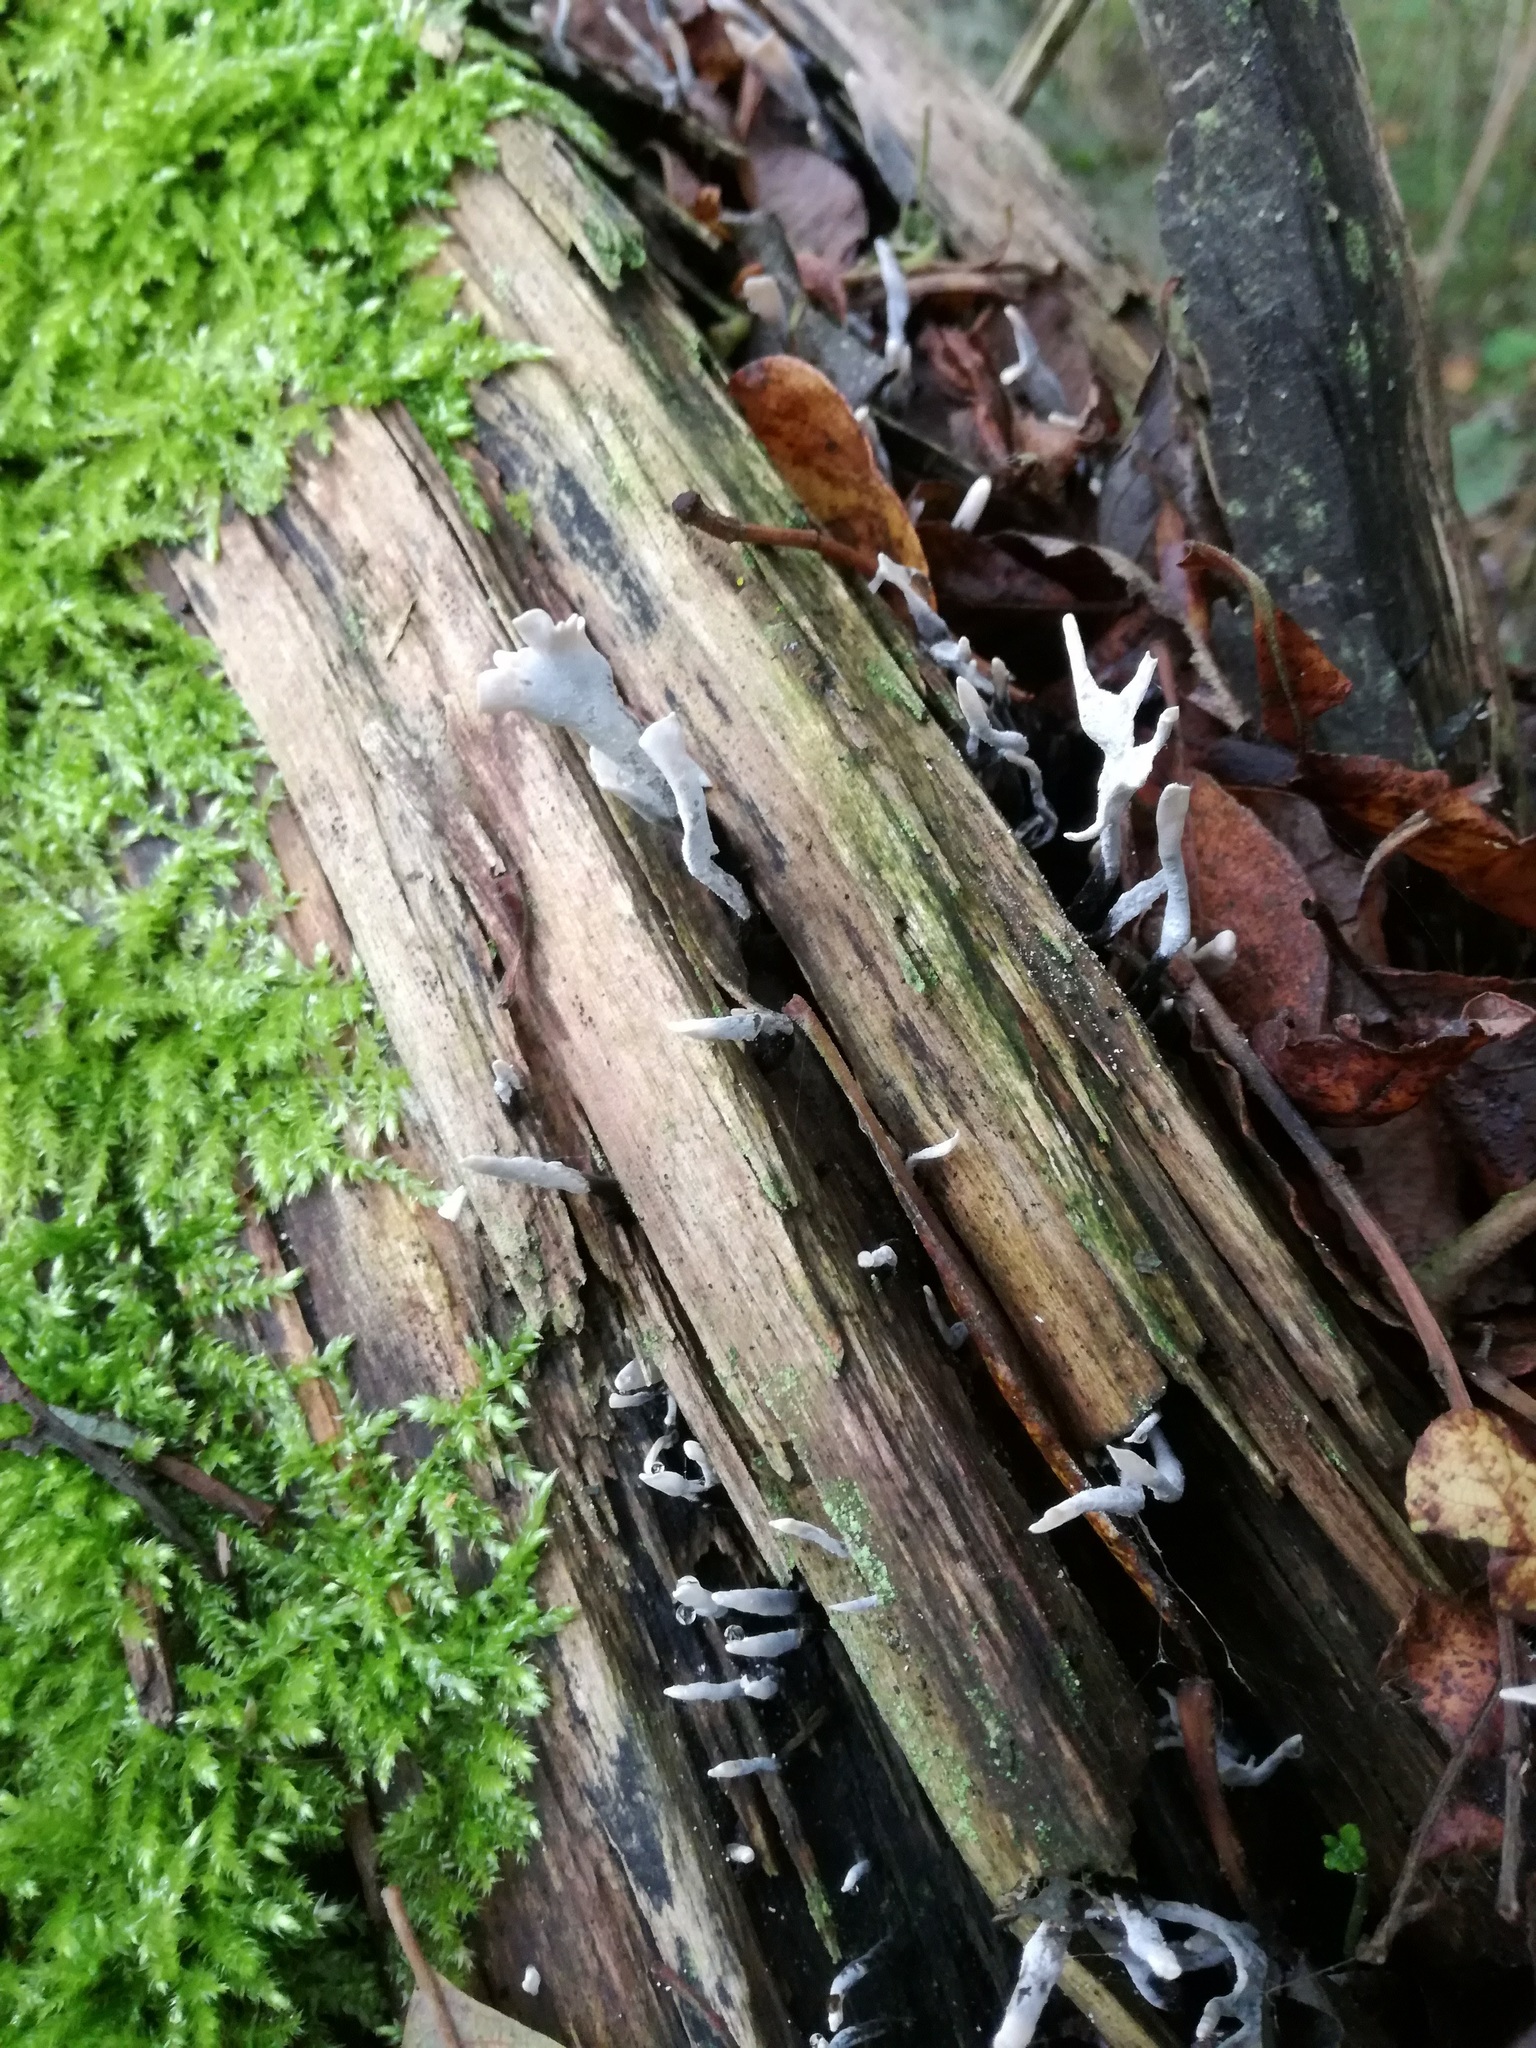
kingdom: Fungi
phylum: Ascomycota
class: Sordariomycetes
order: Xylariales
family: Xylariaceae
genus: Xylaria
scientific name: Xylaria hypoxylon
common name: Candle-snuff fungus
